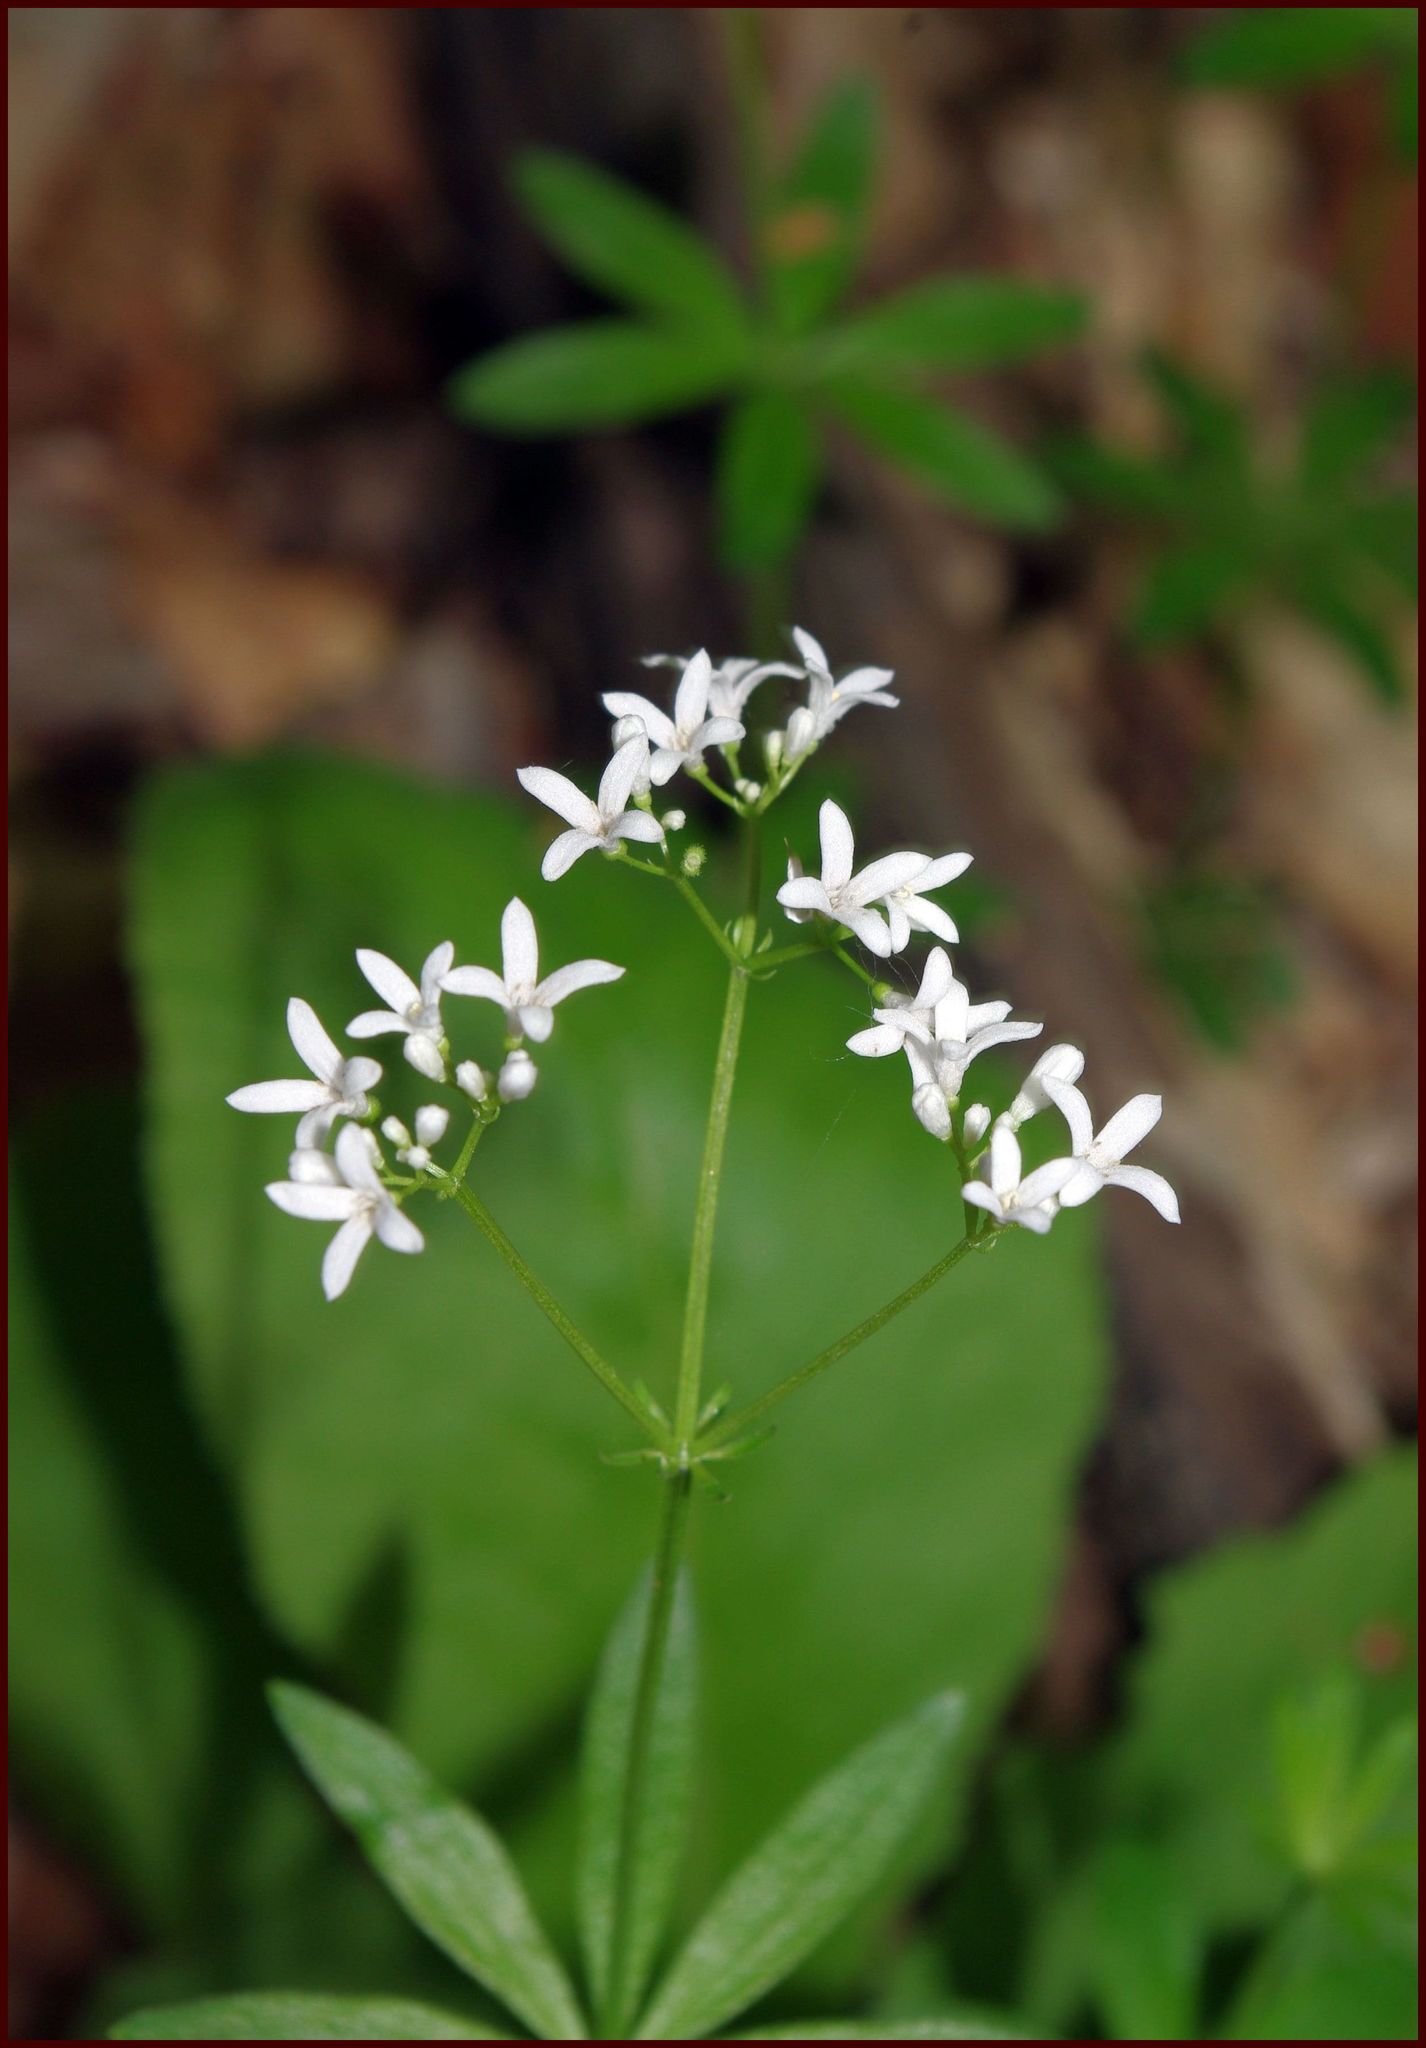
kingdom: Plantae
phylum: Tracheophyta
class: Magnoliopsida
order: Gentianales
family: Rubiaceae
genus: Galium
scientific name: Galium odoratum
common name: Sweet woodruff
